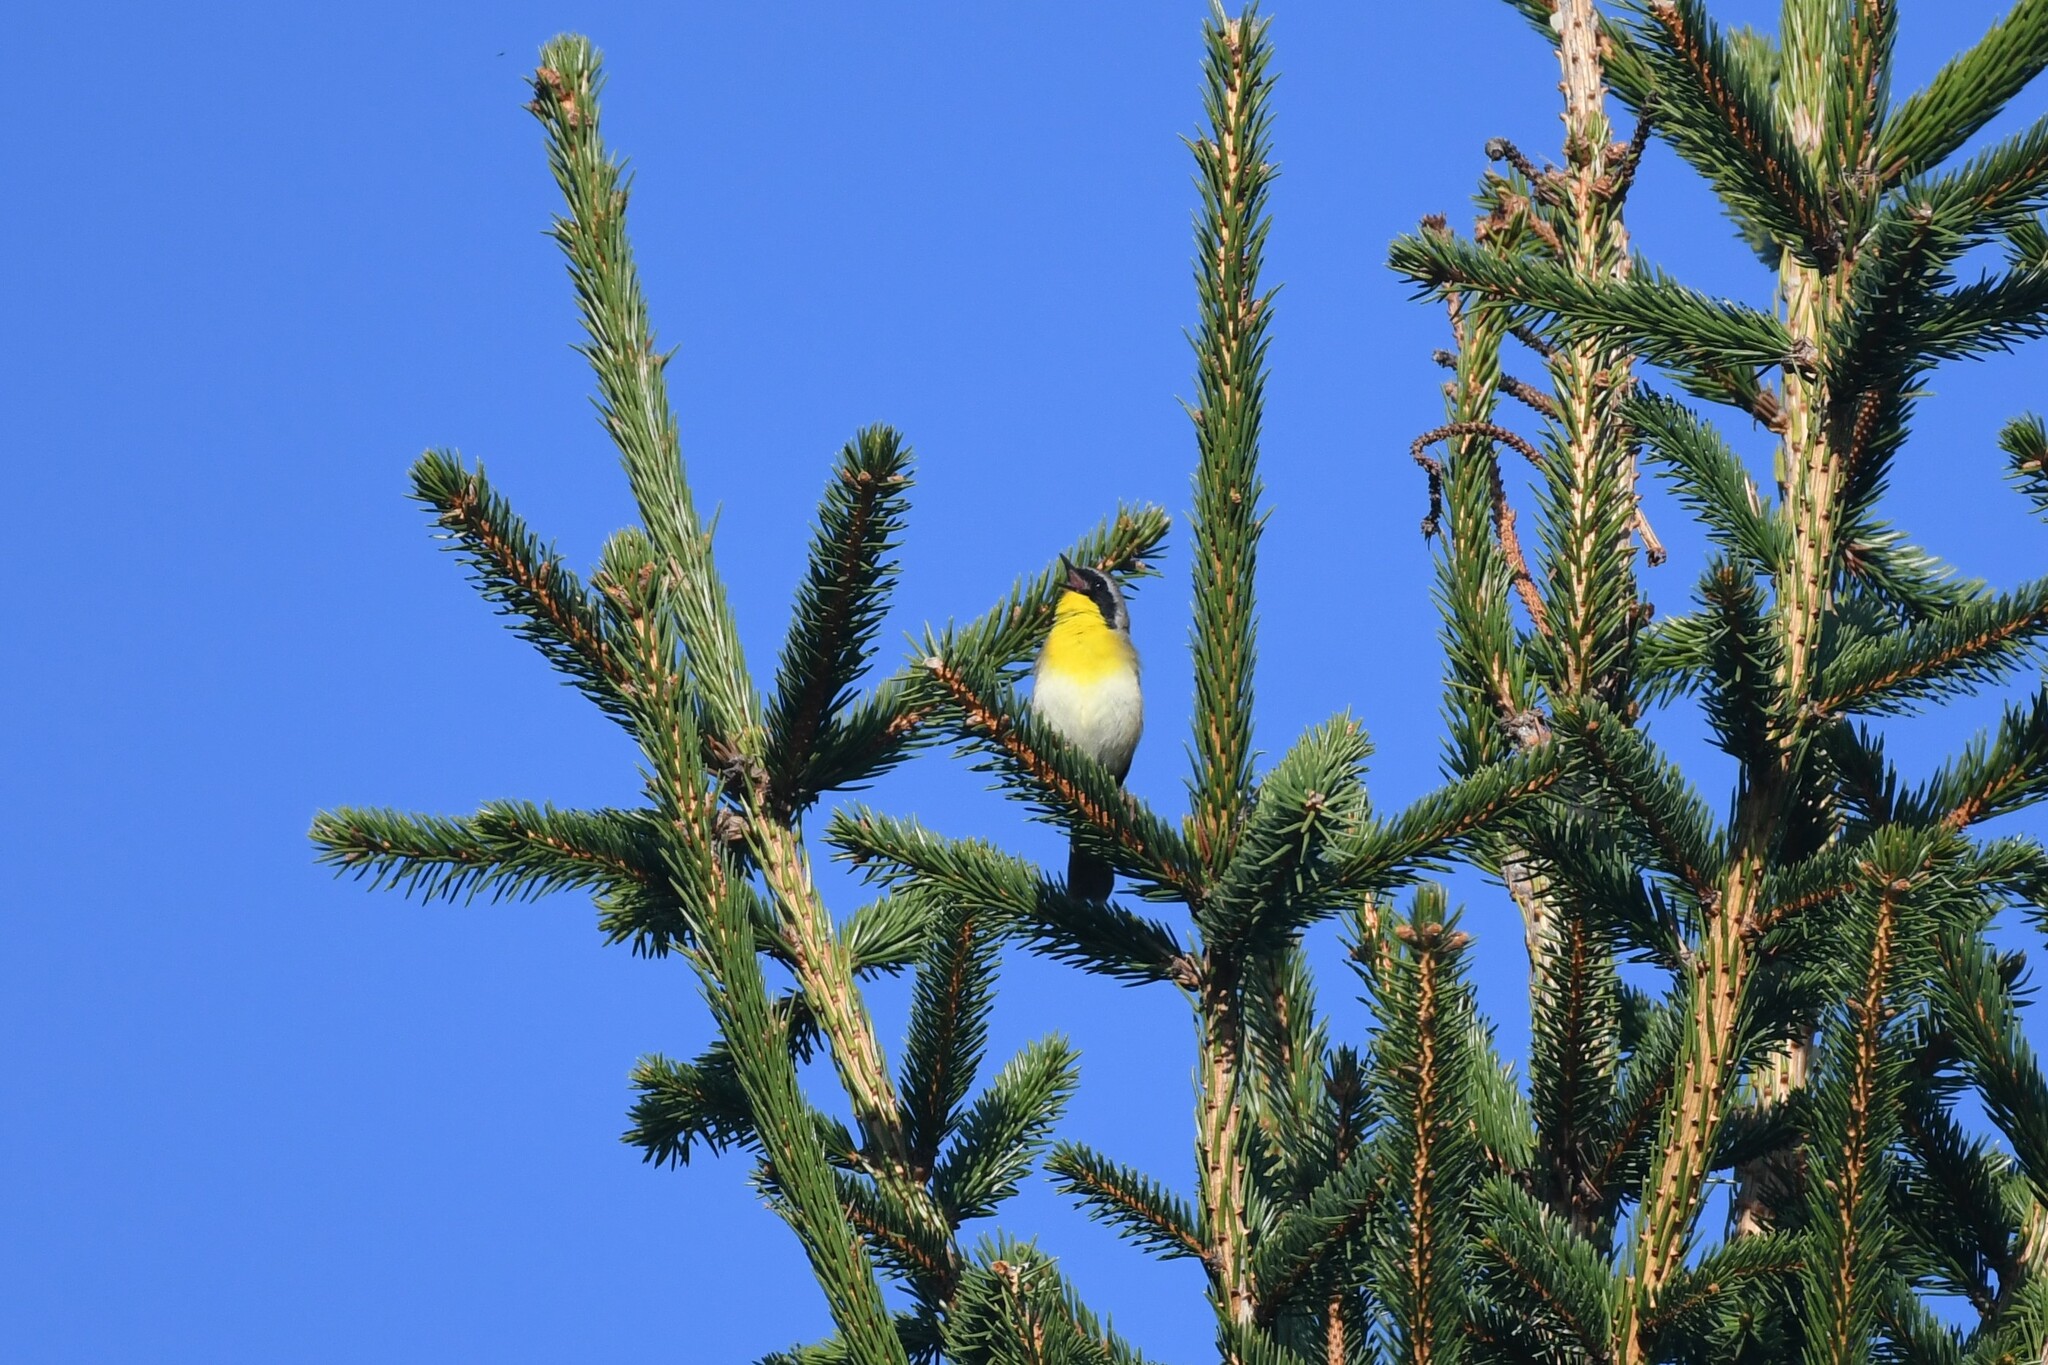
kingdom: Animalia
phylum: Chordata
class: Aves
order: Passeriformes
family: Parulidae
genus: Geothlypis
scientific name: Geothlypis trichas
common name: Common yellowthroat
